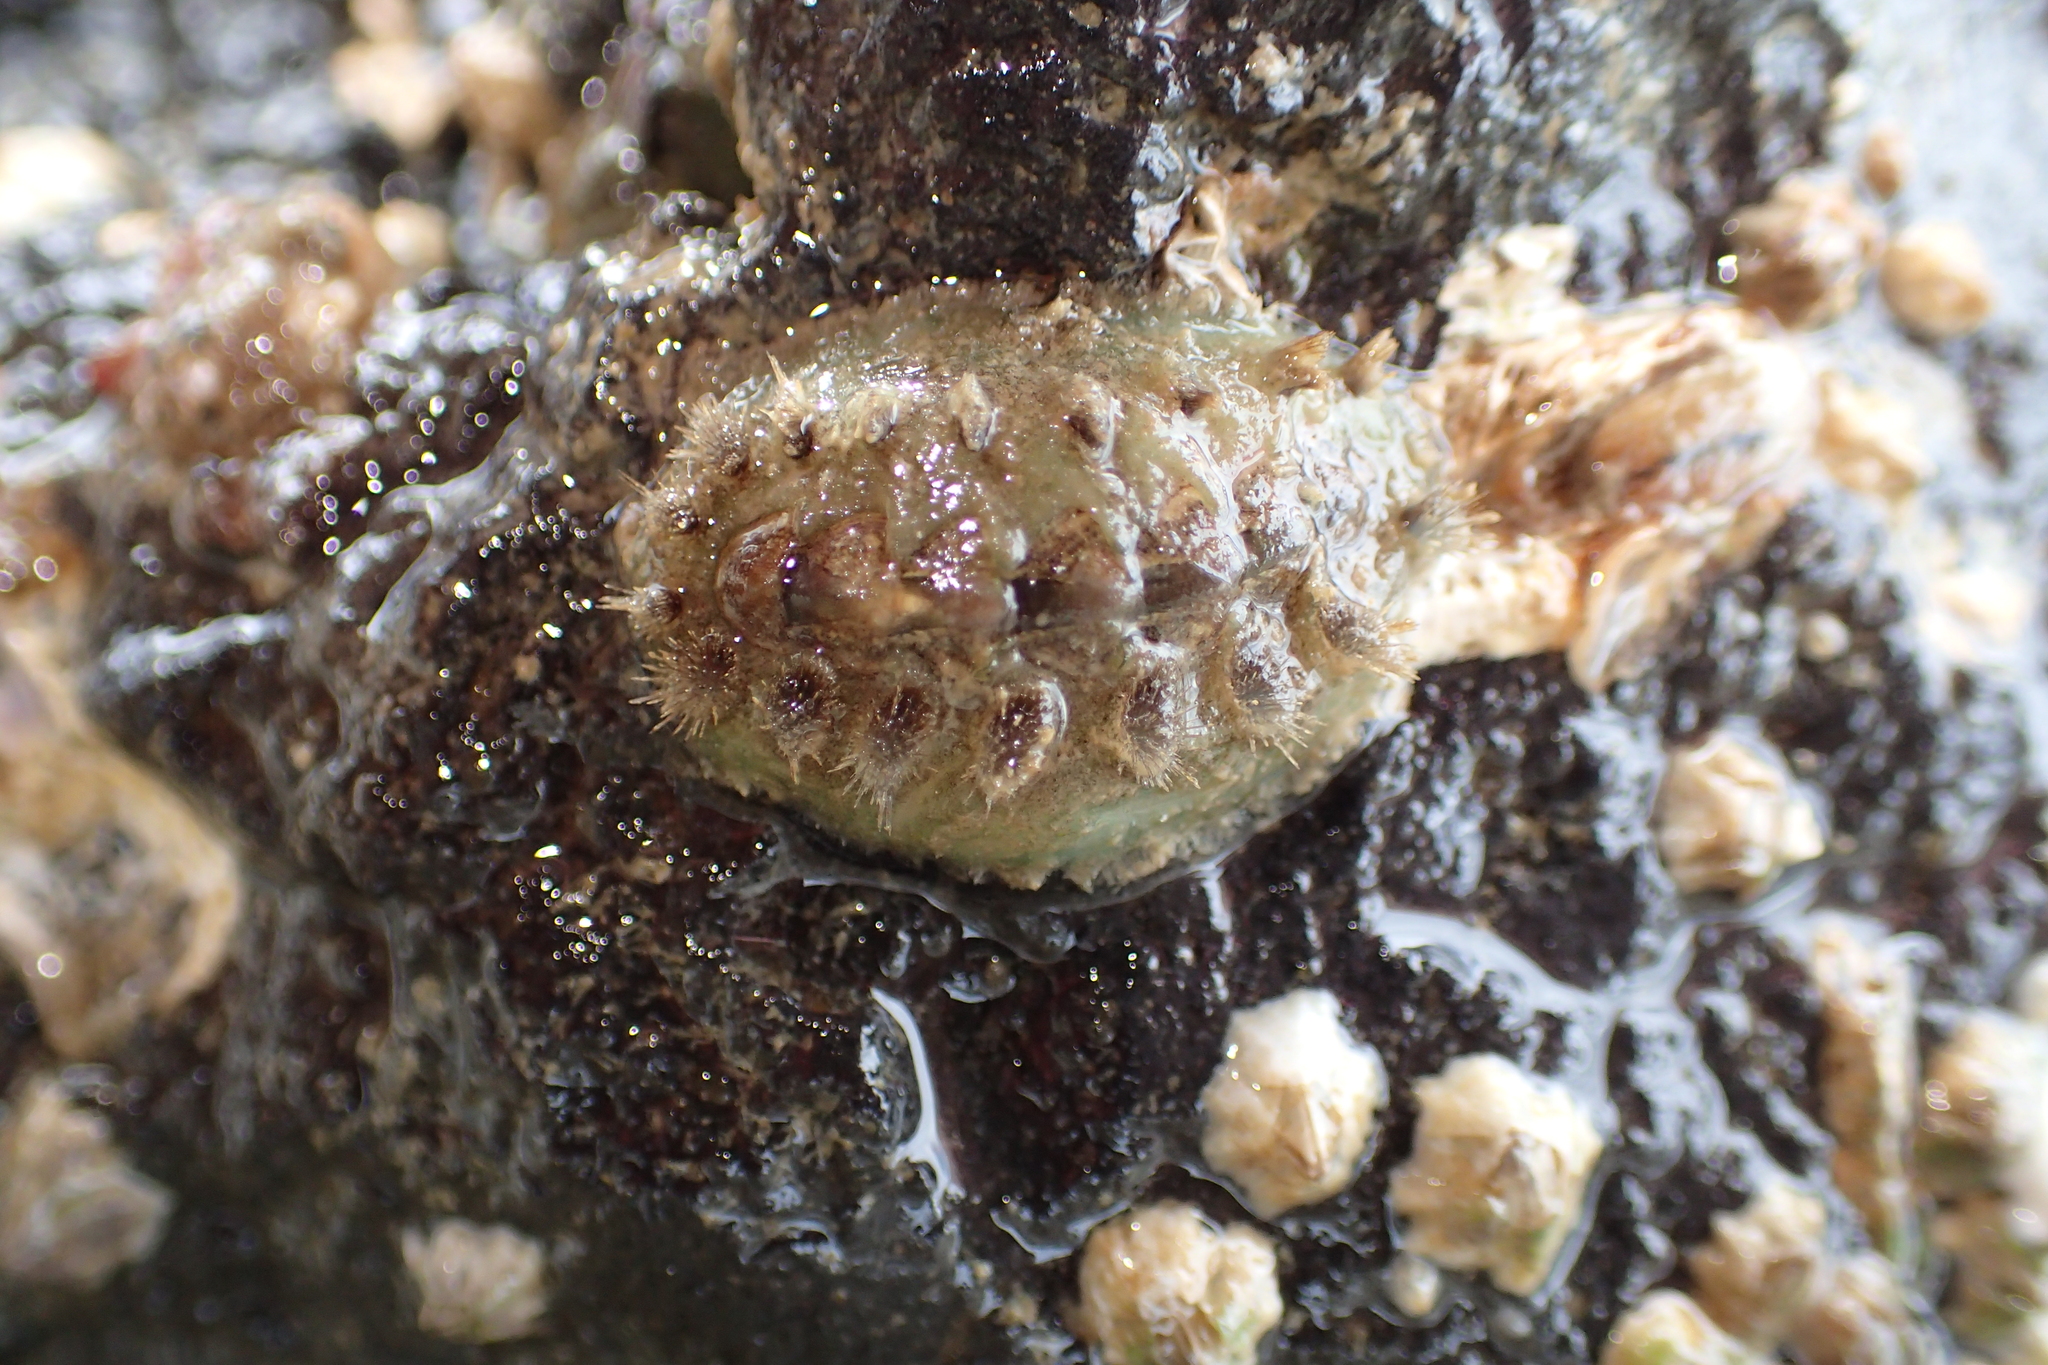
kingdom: Animalia
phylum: Mollusca
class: Polyplacophora
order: Chitonida
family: Acanthochitonidae
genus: Acanthochitona
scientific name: Acanthochitona zelandica
